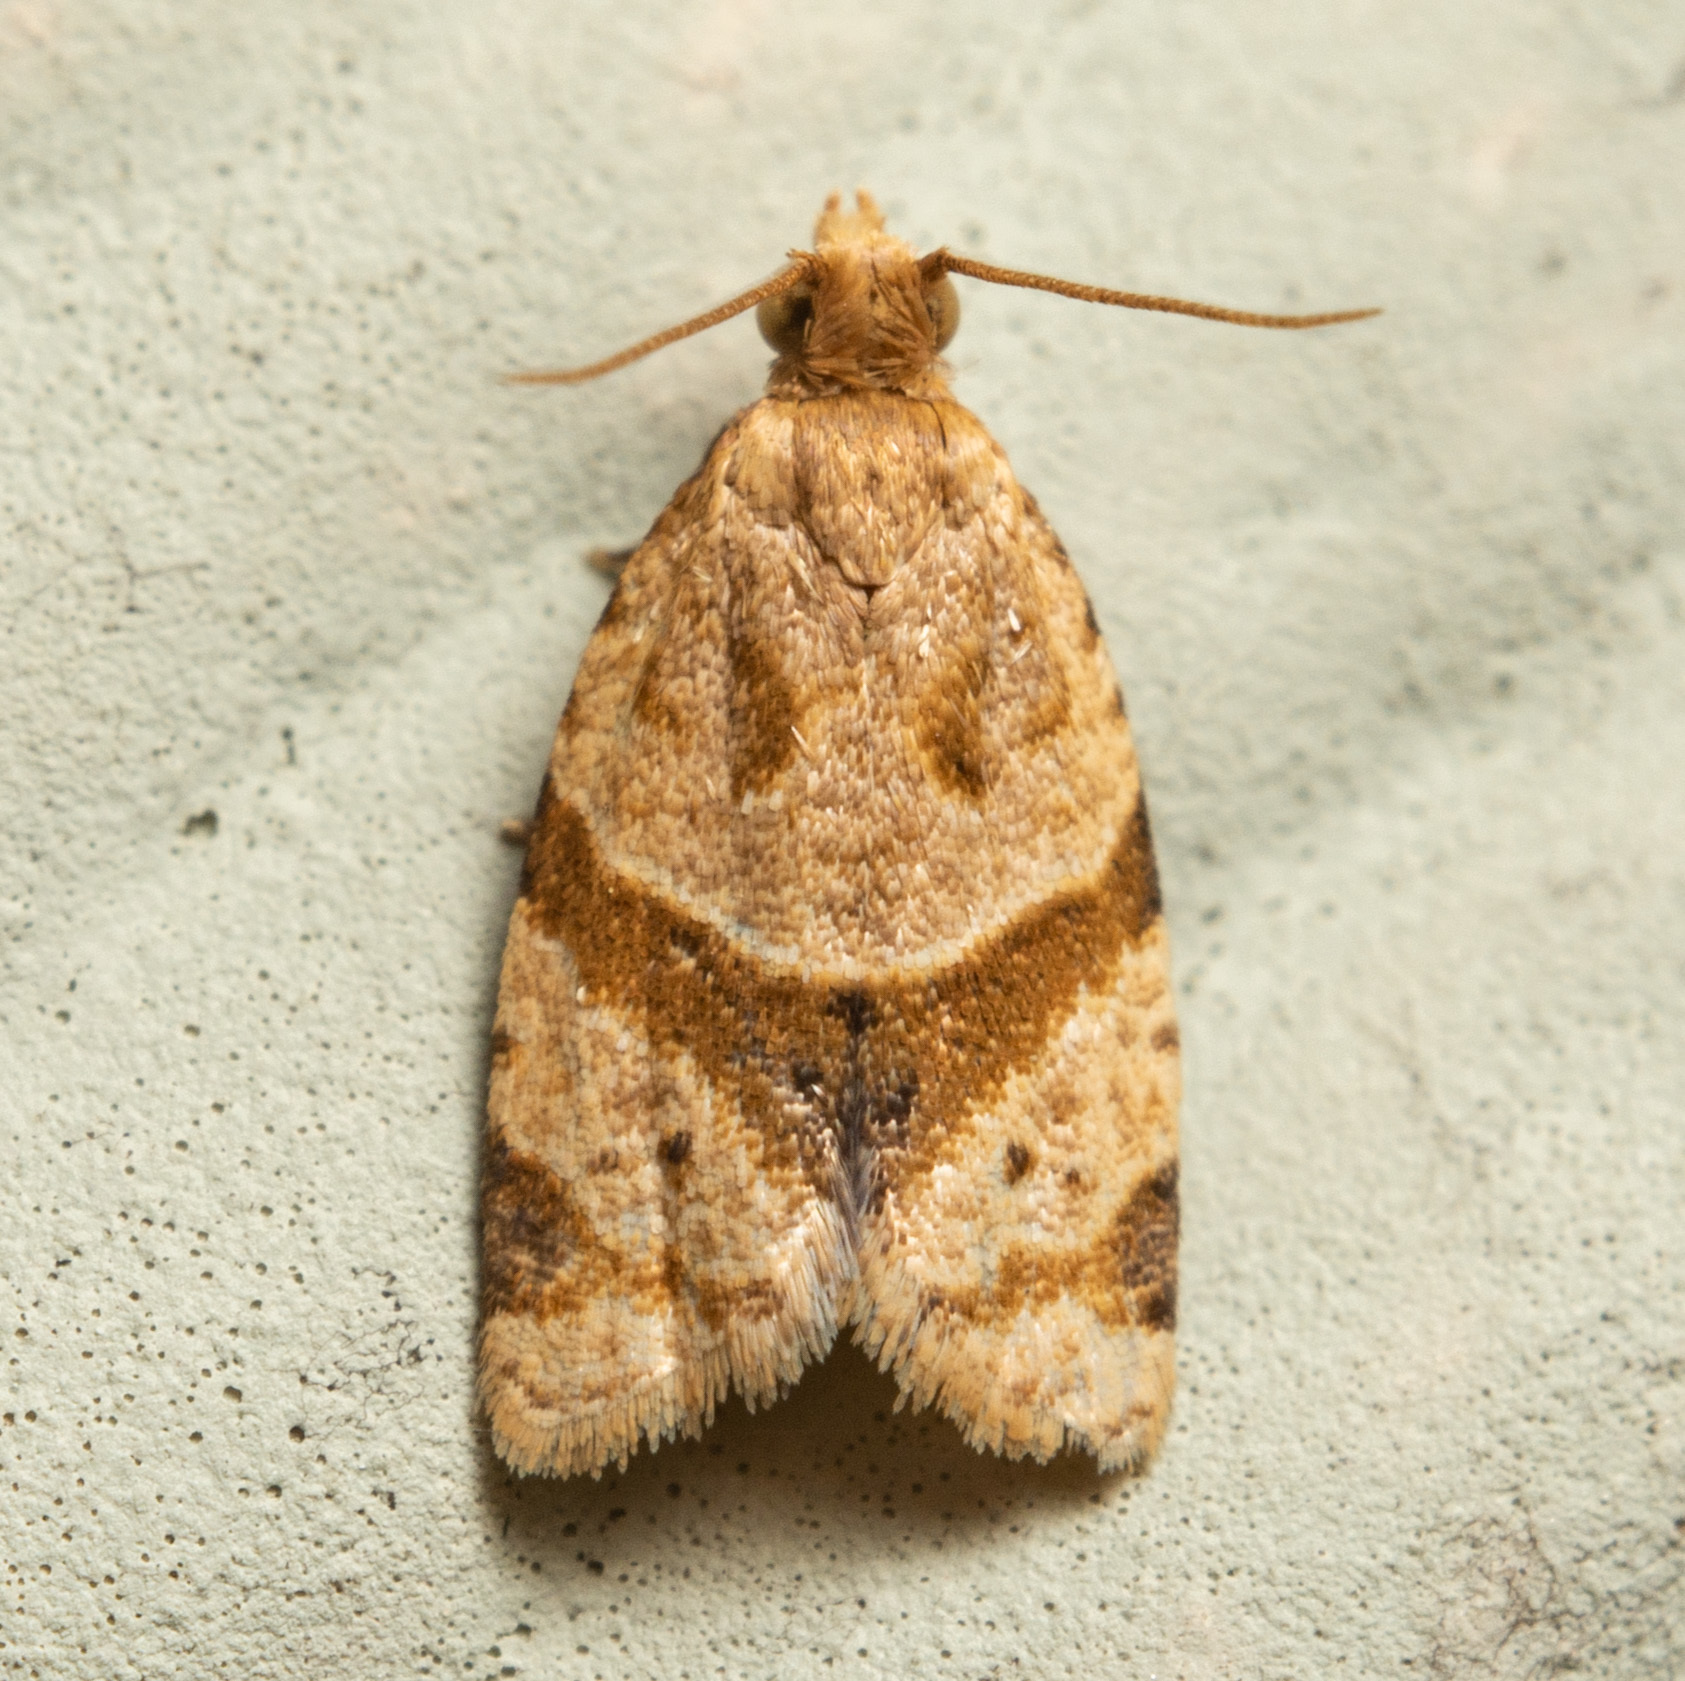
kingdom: Animalia
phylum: Arthropoda
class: Insecta
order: Lepidoptera
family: Tortricidae
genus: Clepsis
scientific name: Clepsis peritana
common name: Garden tortrix
